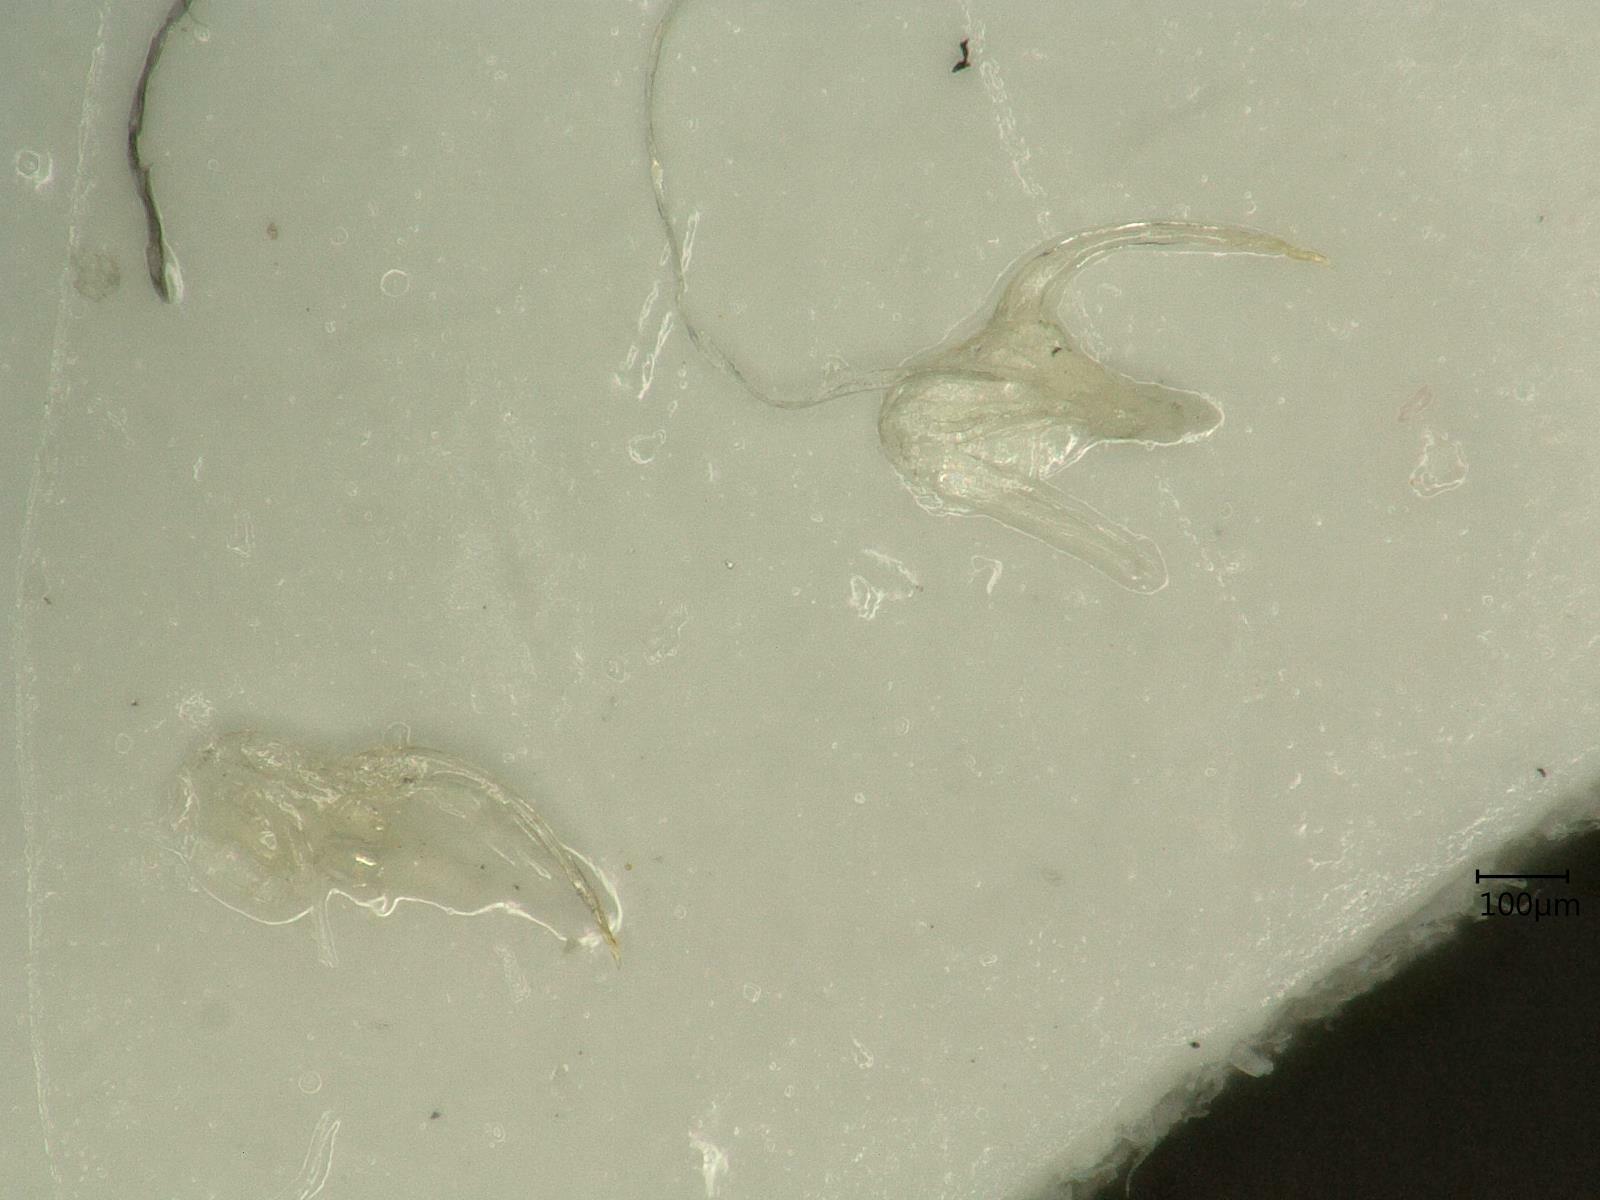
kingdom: Animalia
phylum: Arthropoda
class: Insecta
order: Hemiptera
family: Cicadellidae
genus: Kybos
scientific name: Kybos rufescens
